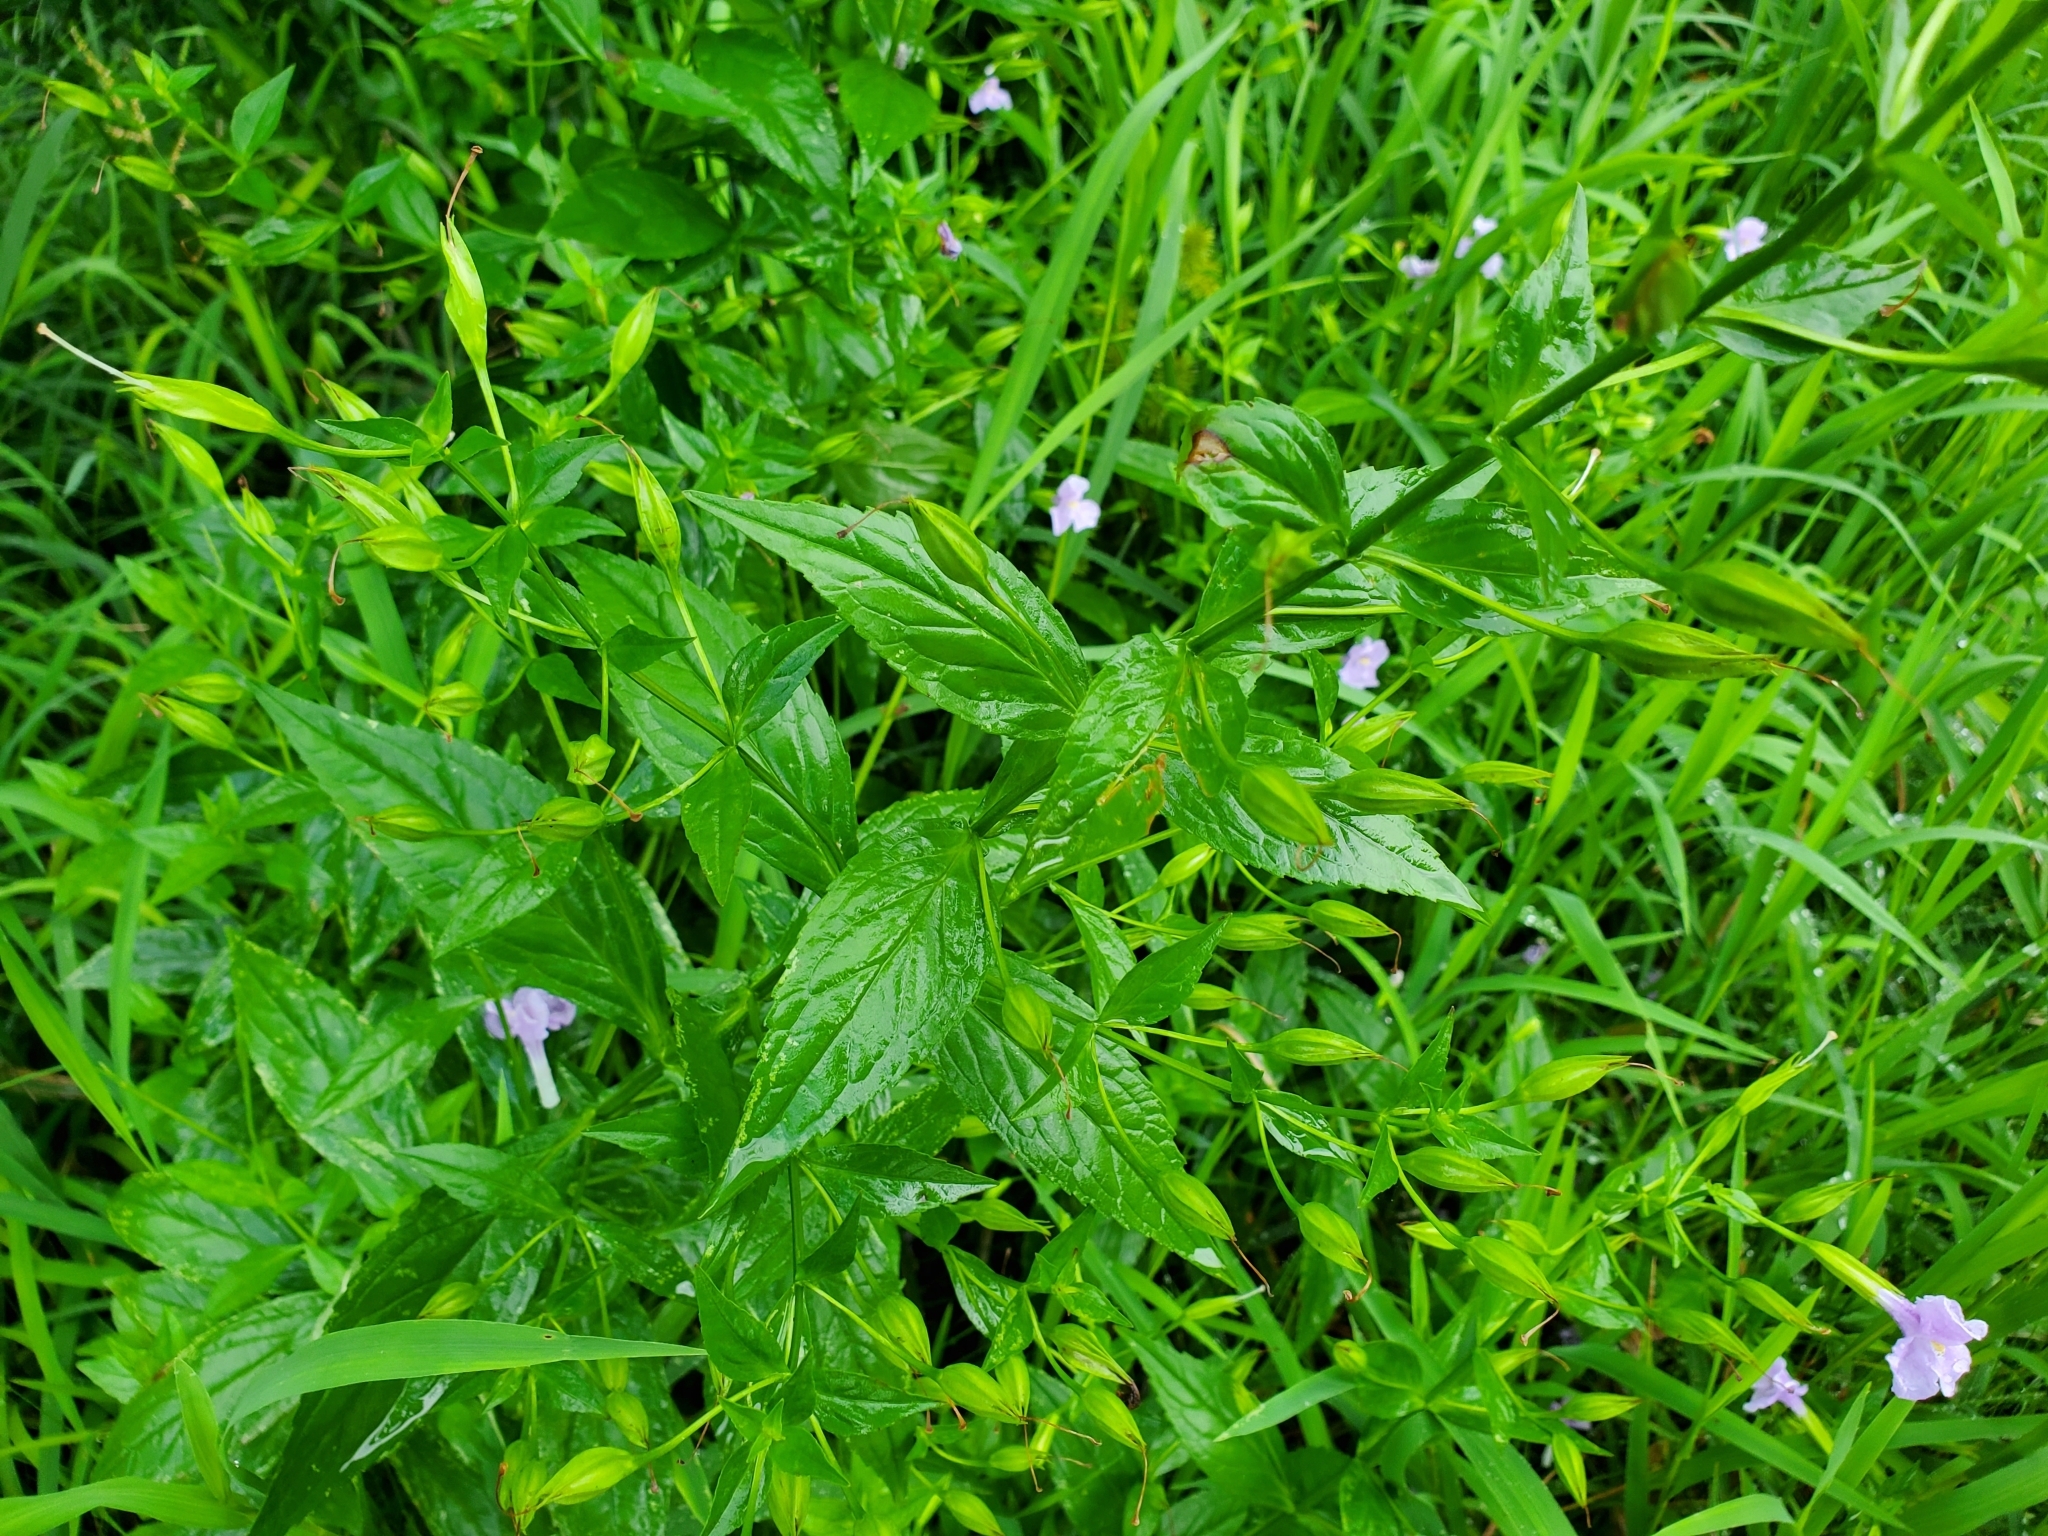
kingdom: Plantae
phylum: Tracheophyta
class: Magnoliopsida
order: Lamiales
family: Phrymaceae
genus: Mimulus
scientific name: Mimulus ringens
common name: Allegheny monkeyflower
